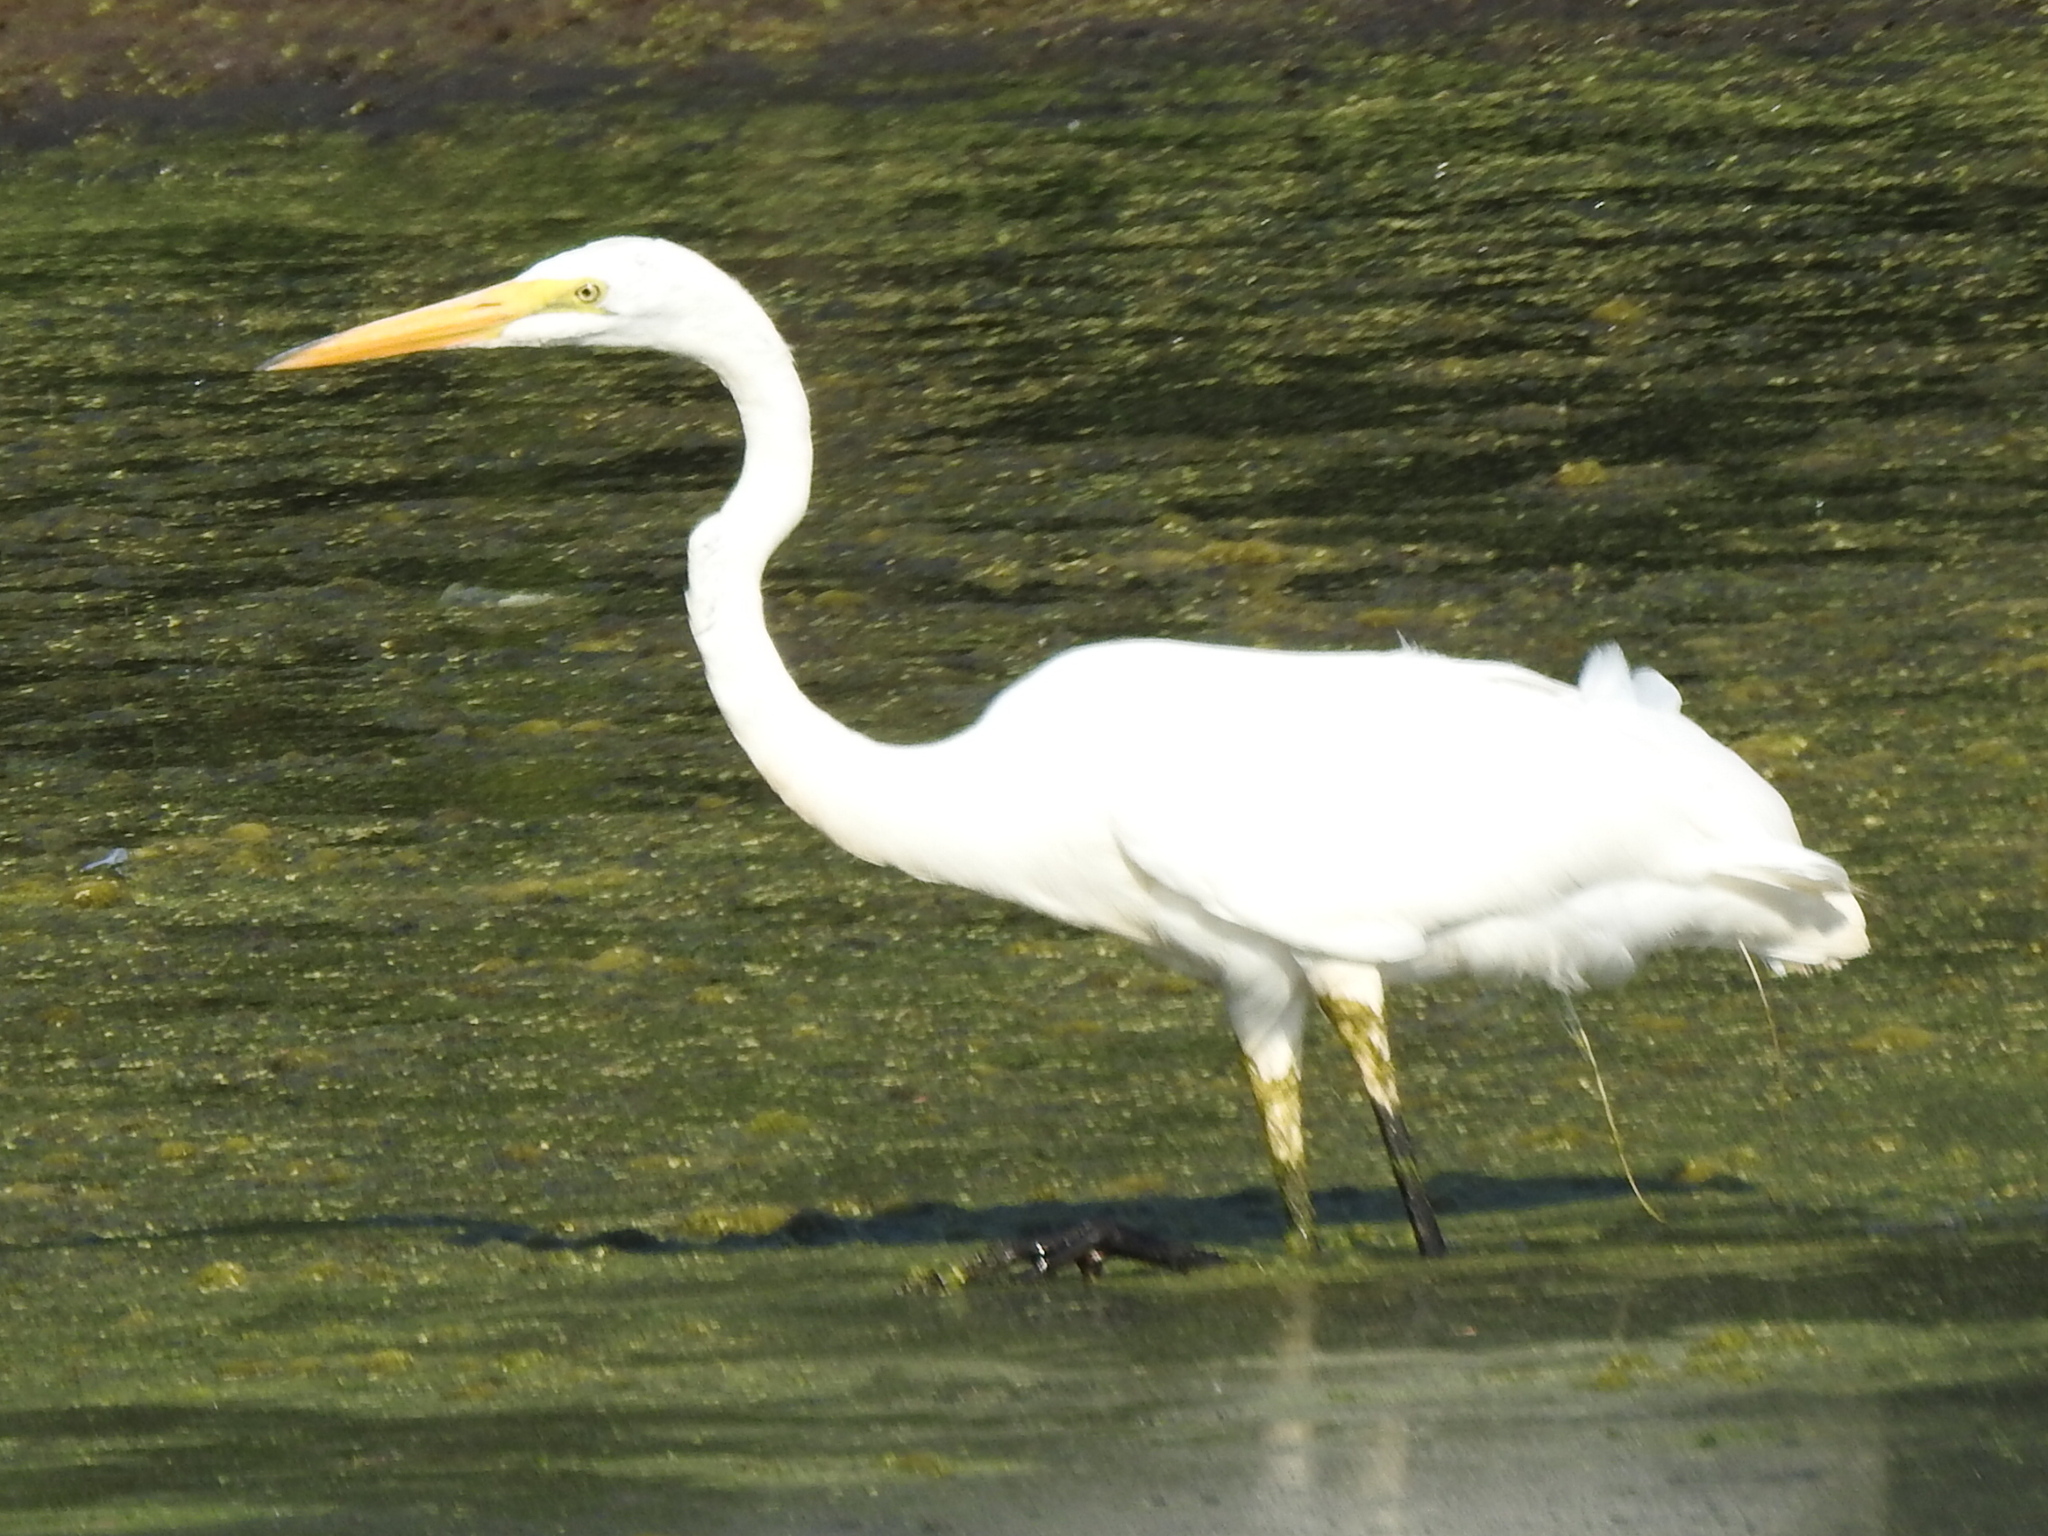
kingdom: Animalia
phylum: Chordata
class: Aves
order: Pelecaniformes
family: Ardeidae
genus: Ardea
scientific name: Ardea alba
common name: Great egret
